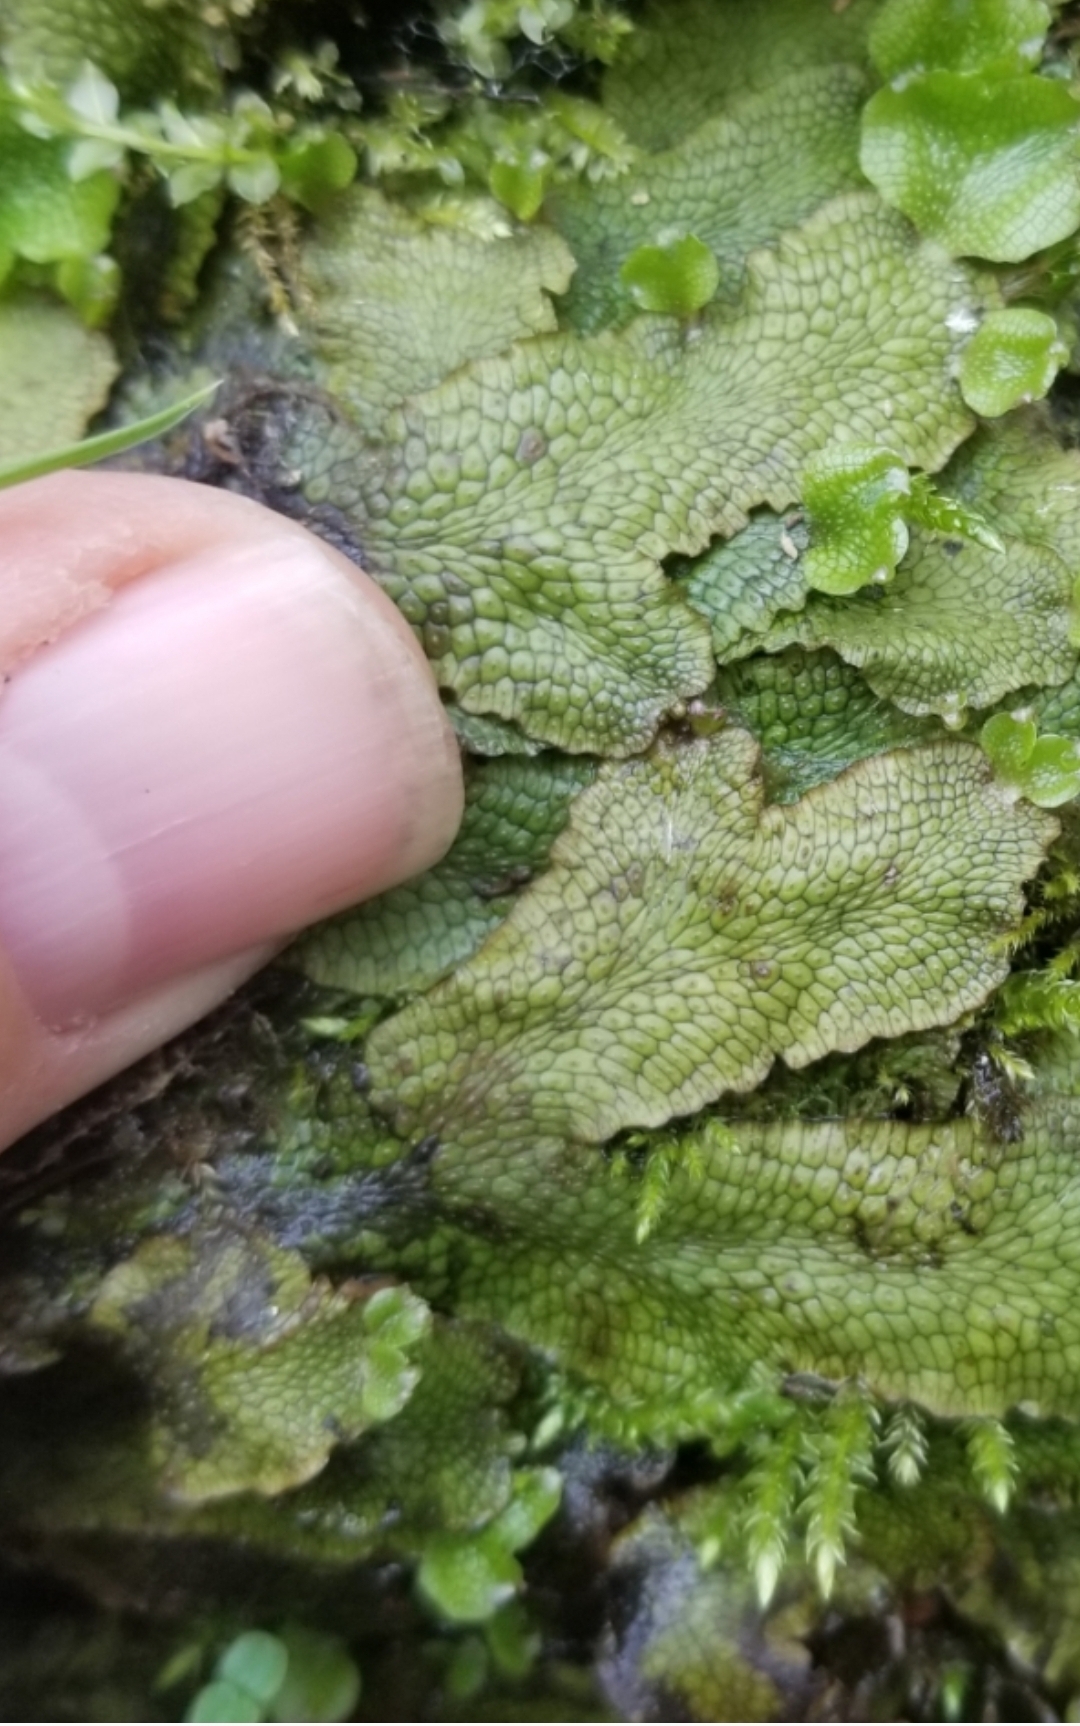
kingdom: Plantae
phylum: Marchantiophyta
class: Marchantiopsida
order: Marchantiales
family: Conocephalaceae
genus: Conocephalum
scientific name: Conocephalum salebrosum
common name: Cat-tongue liverwort
